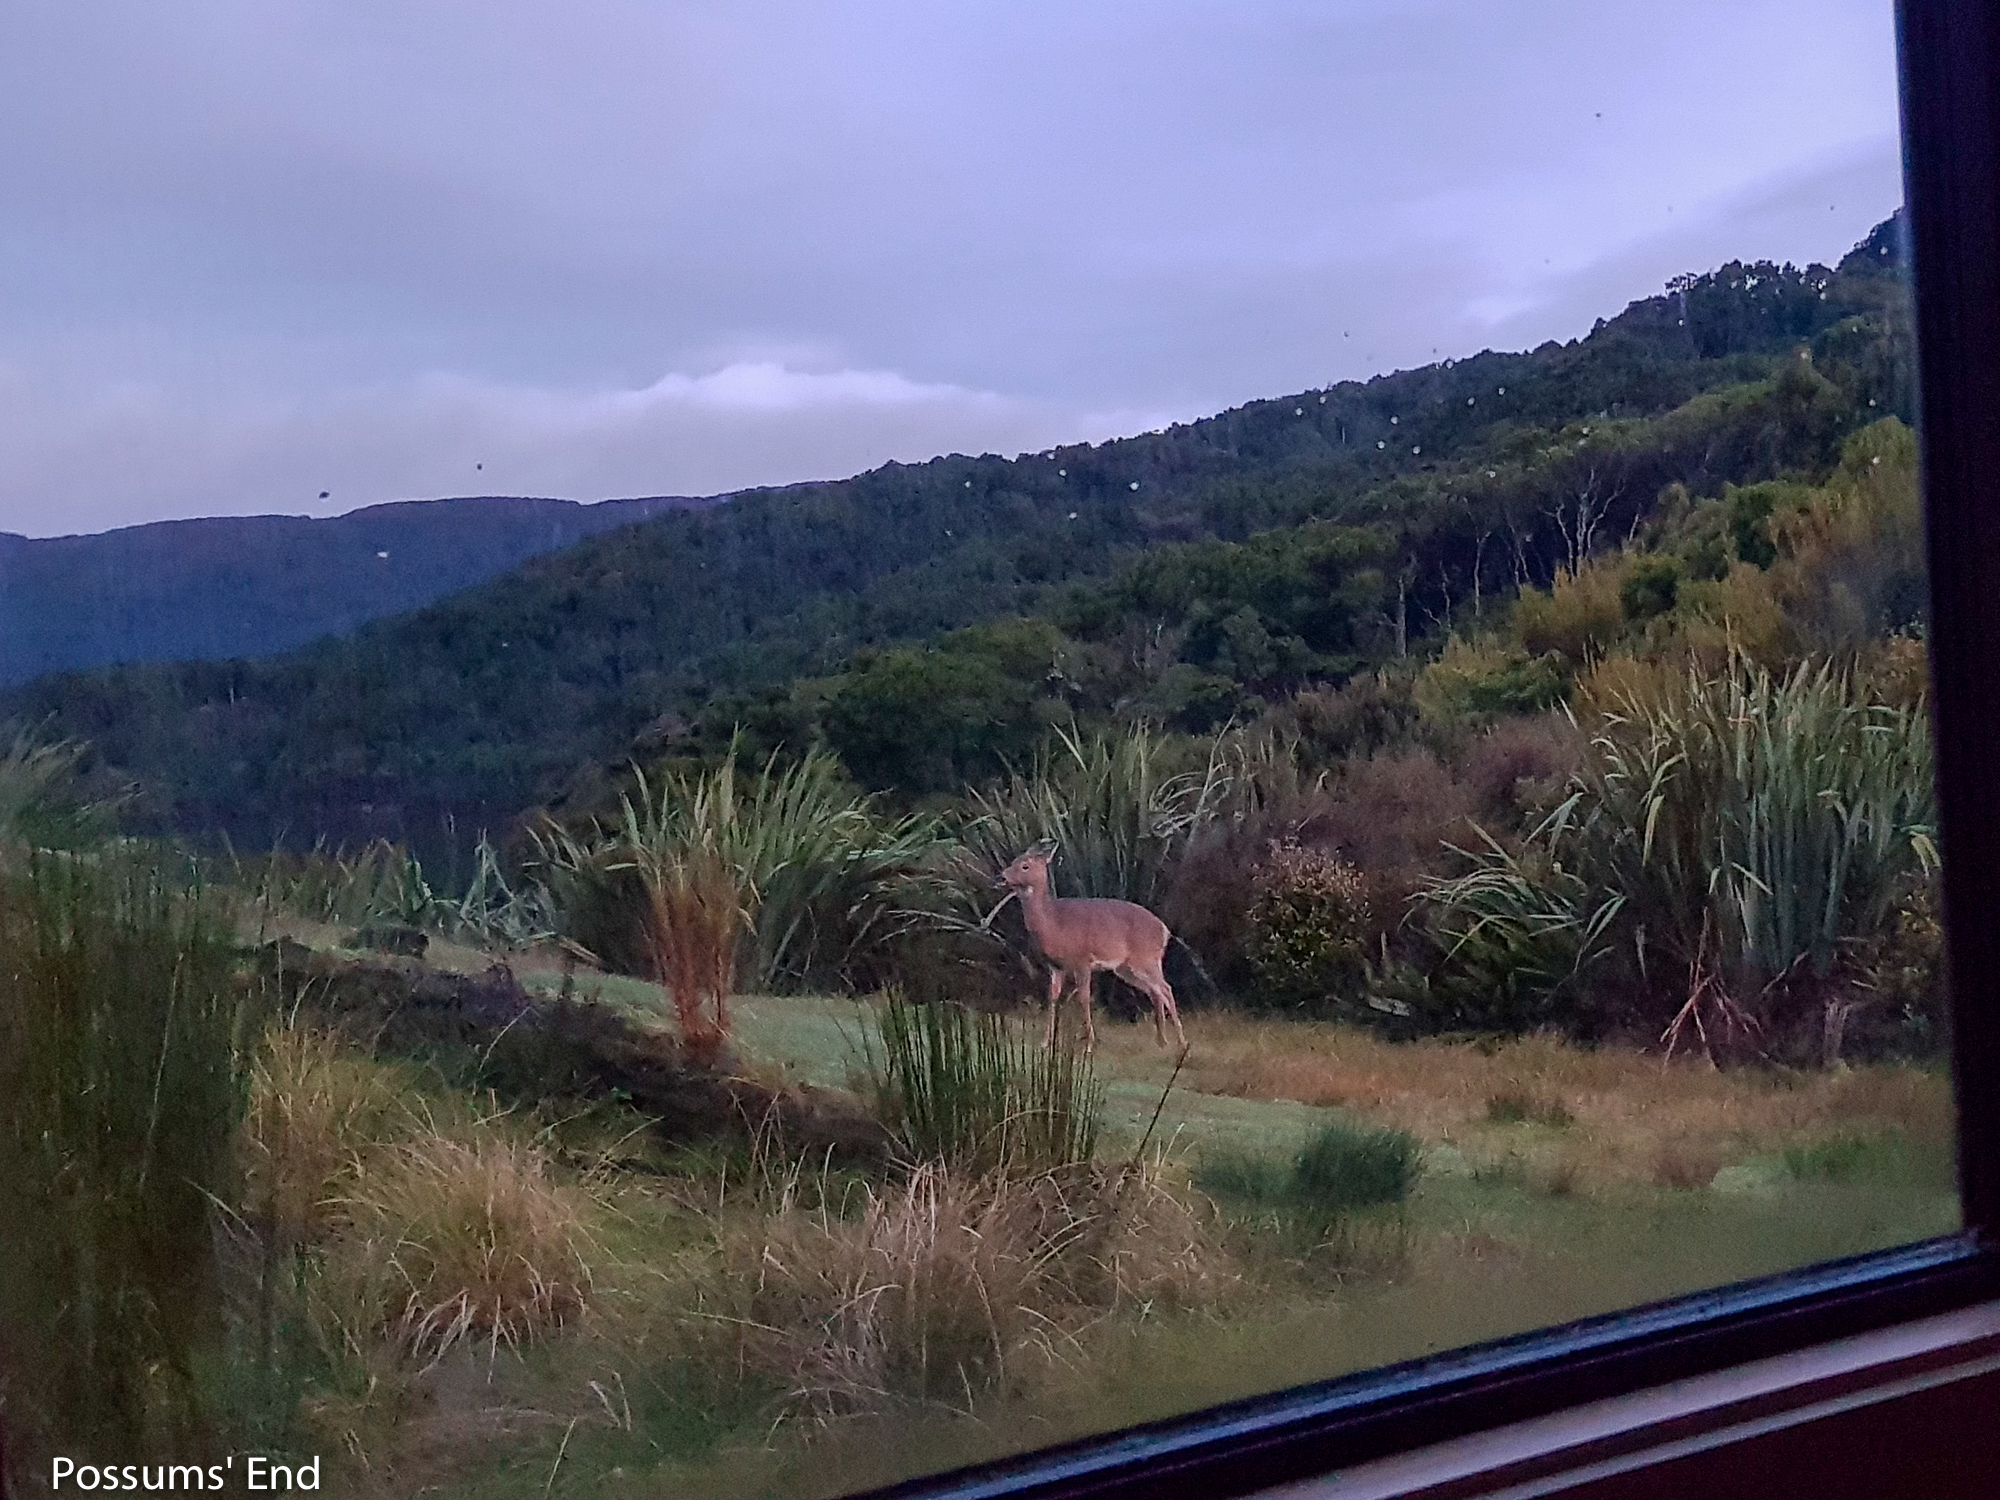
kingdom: Animalia
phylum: Chordata
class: Mammalia
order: Artiodactyla
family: Cervidae
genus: Odocoileus
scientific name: Odocoileus virginianus
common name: White-tailed deer
